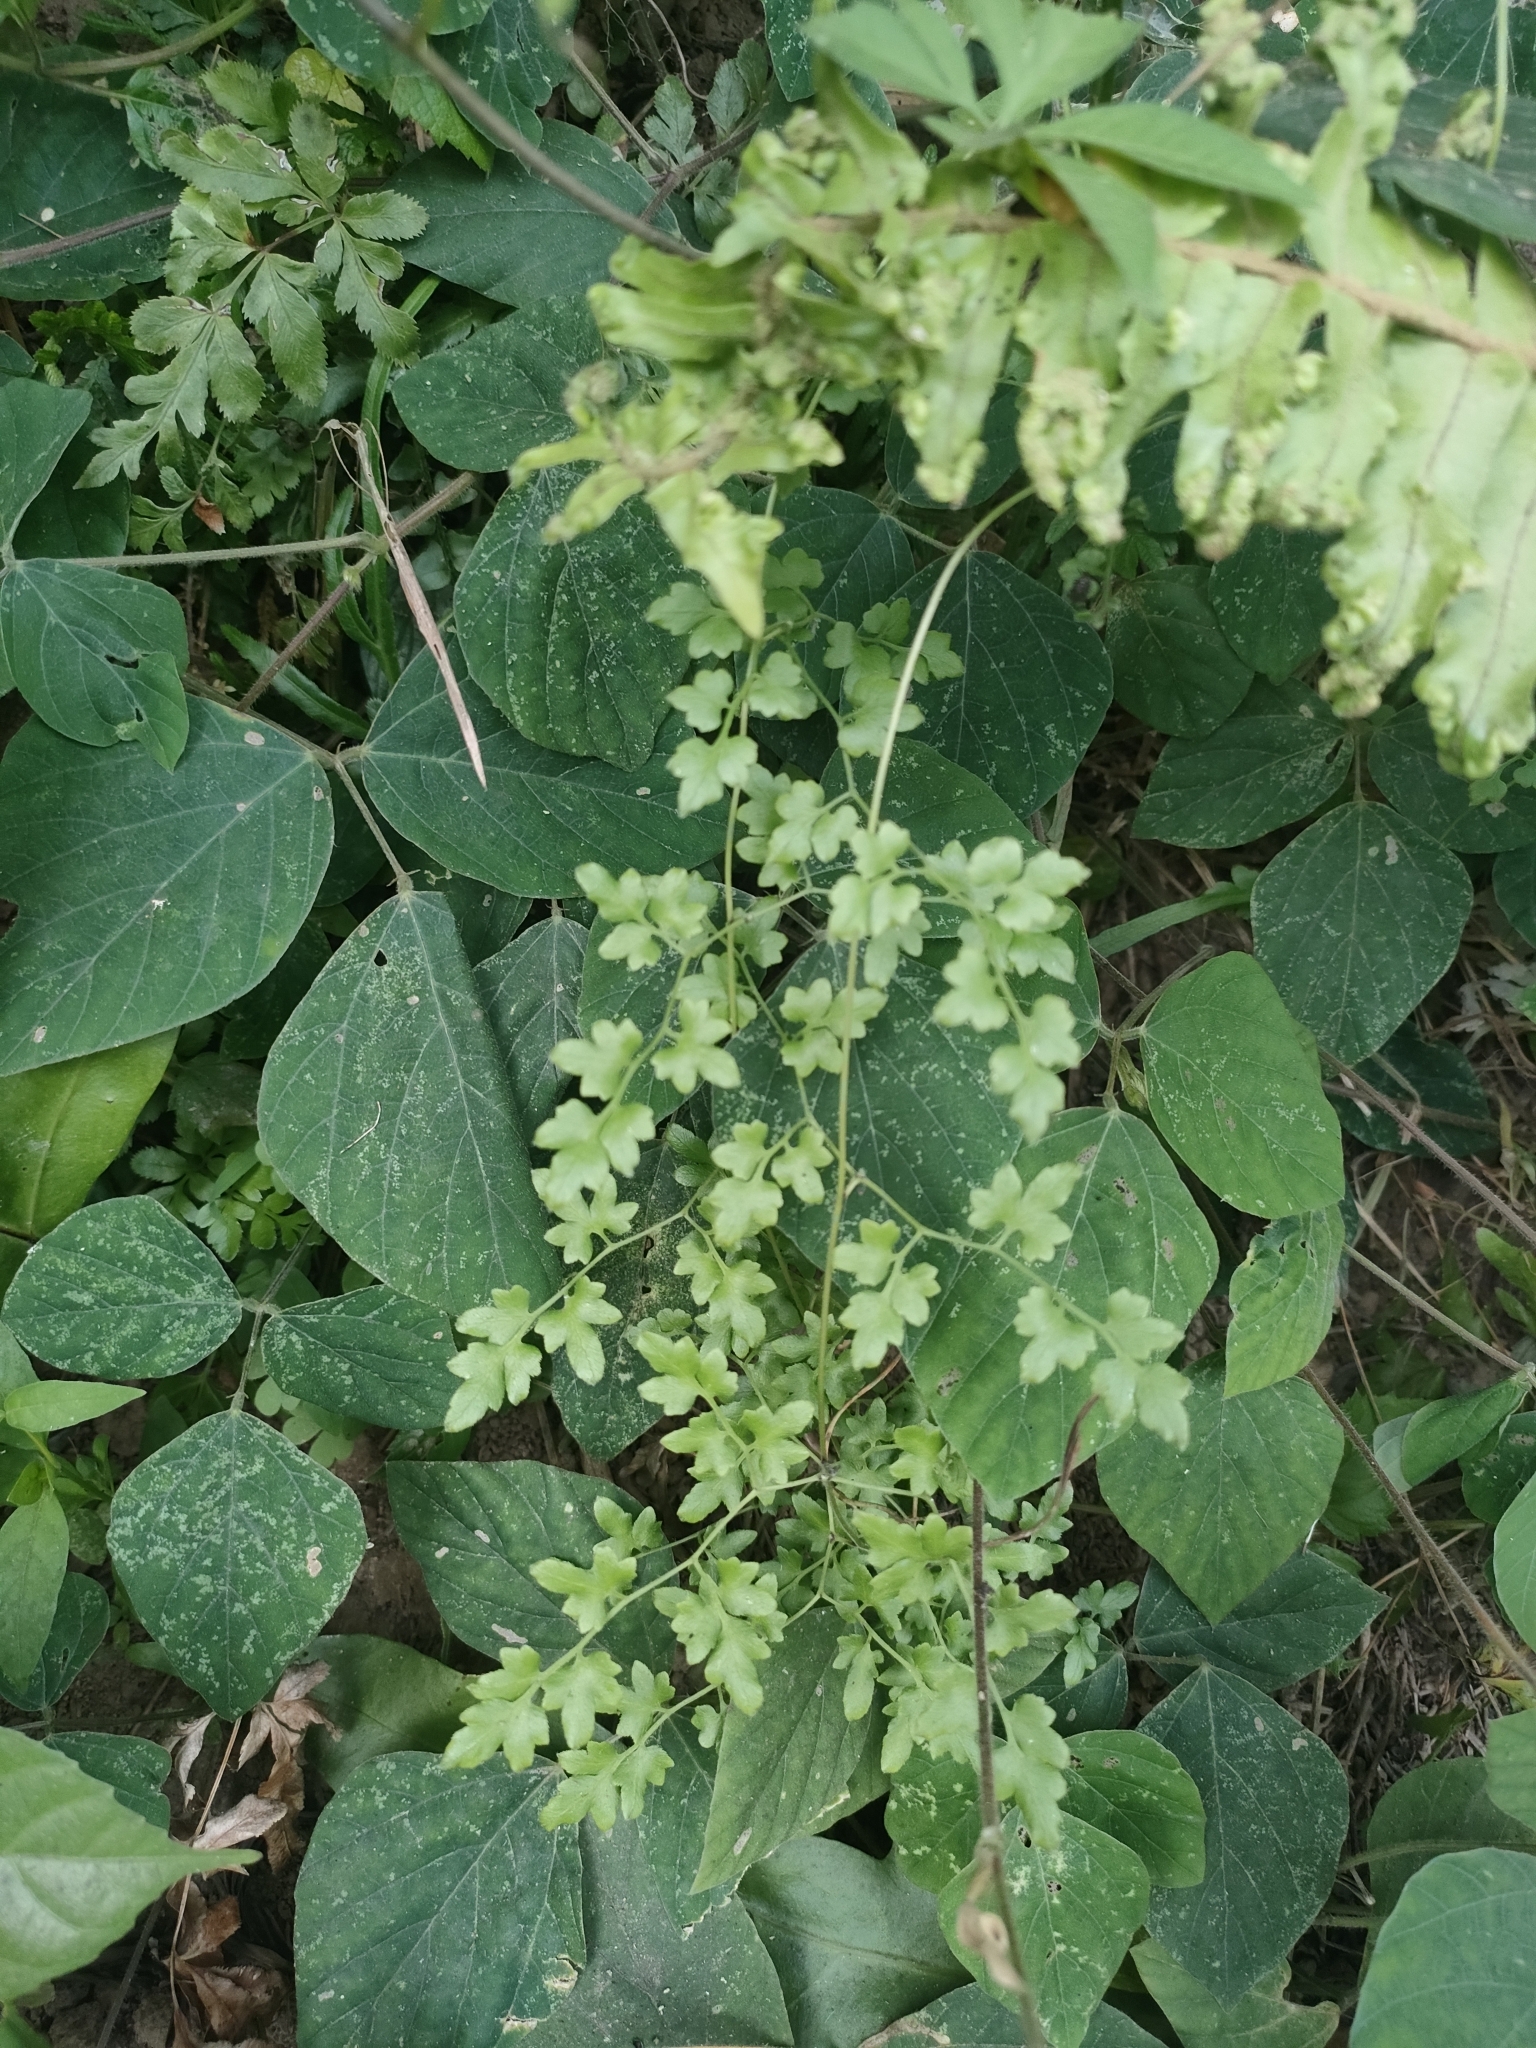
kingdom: Plantae
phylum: Tracheophyta
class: Polypodiopsida
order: Schizaeales
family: Lygodiaceae
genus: Lygodium
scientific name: Lygodium japonicum
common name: Japanese climbing fern
